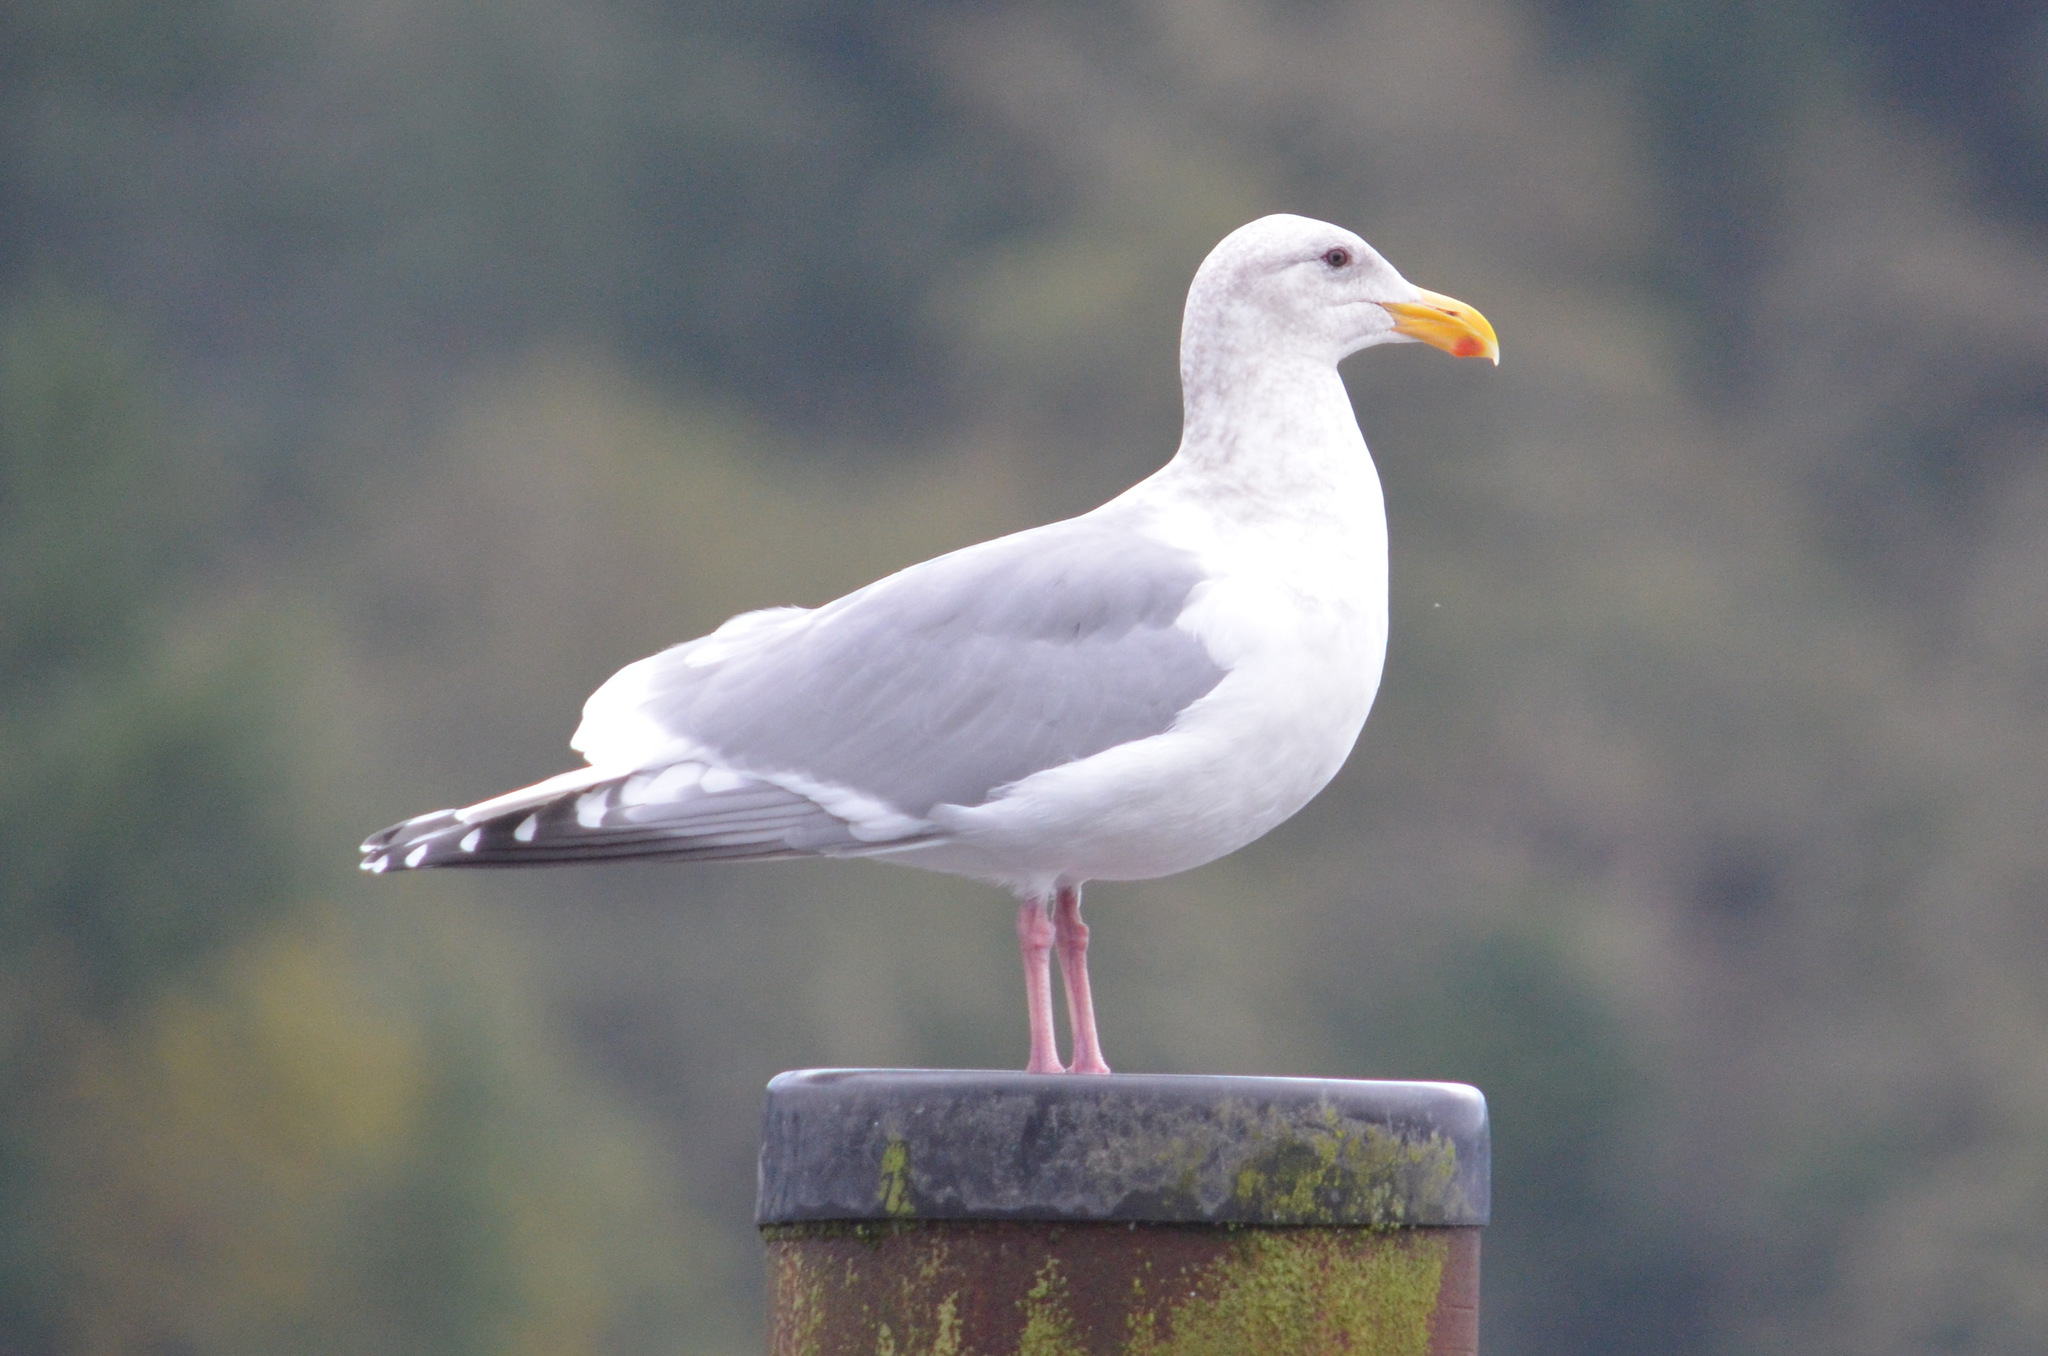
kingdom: Animalia
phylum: Chordata
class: Aves
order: Charadriiformes
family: Laridae
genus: Larus
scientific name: Larus
